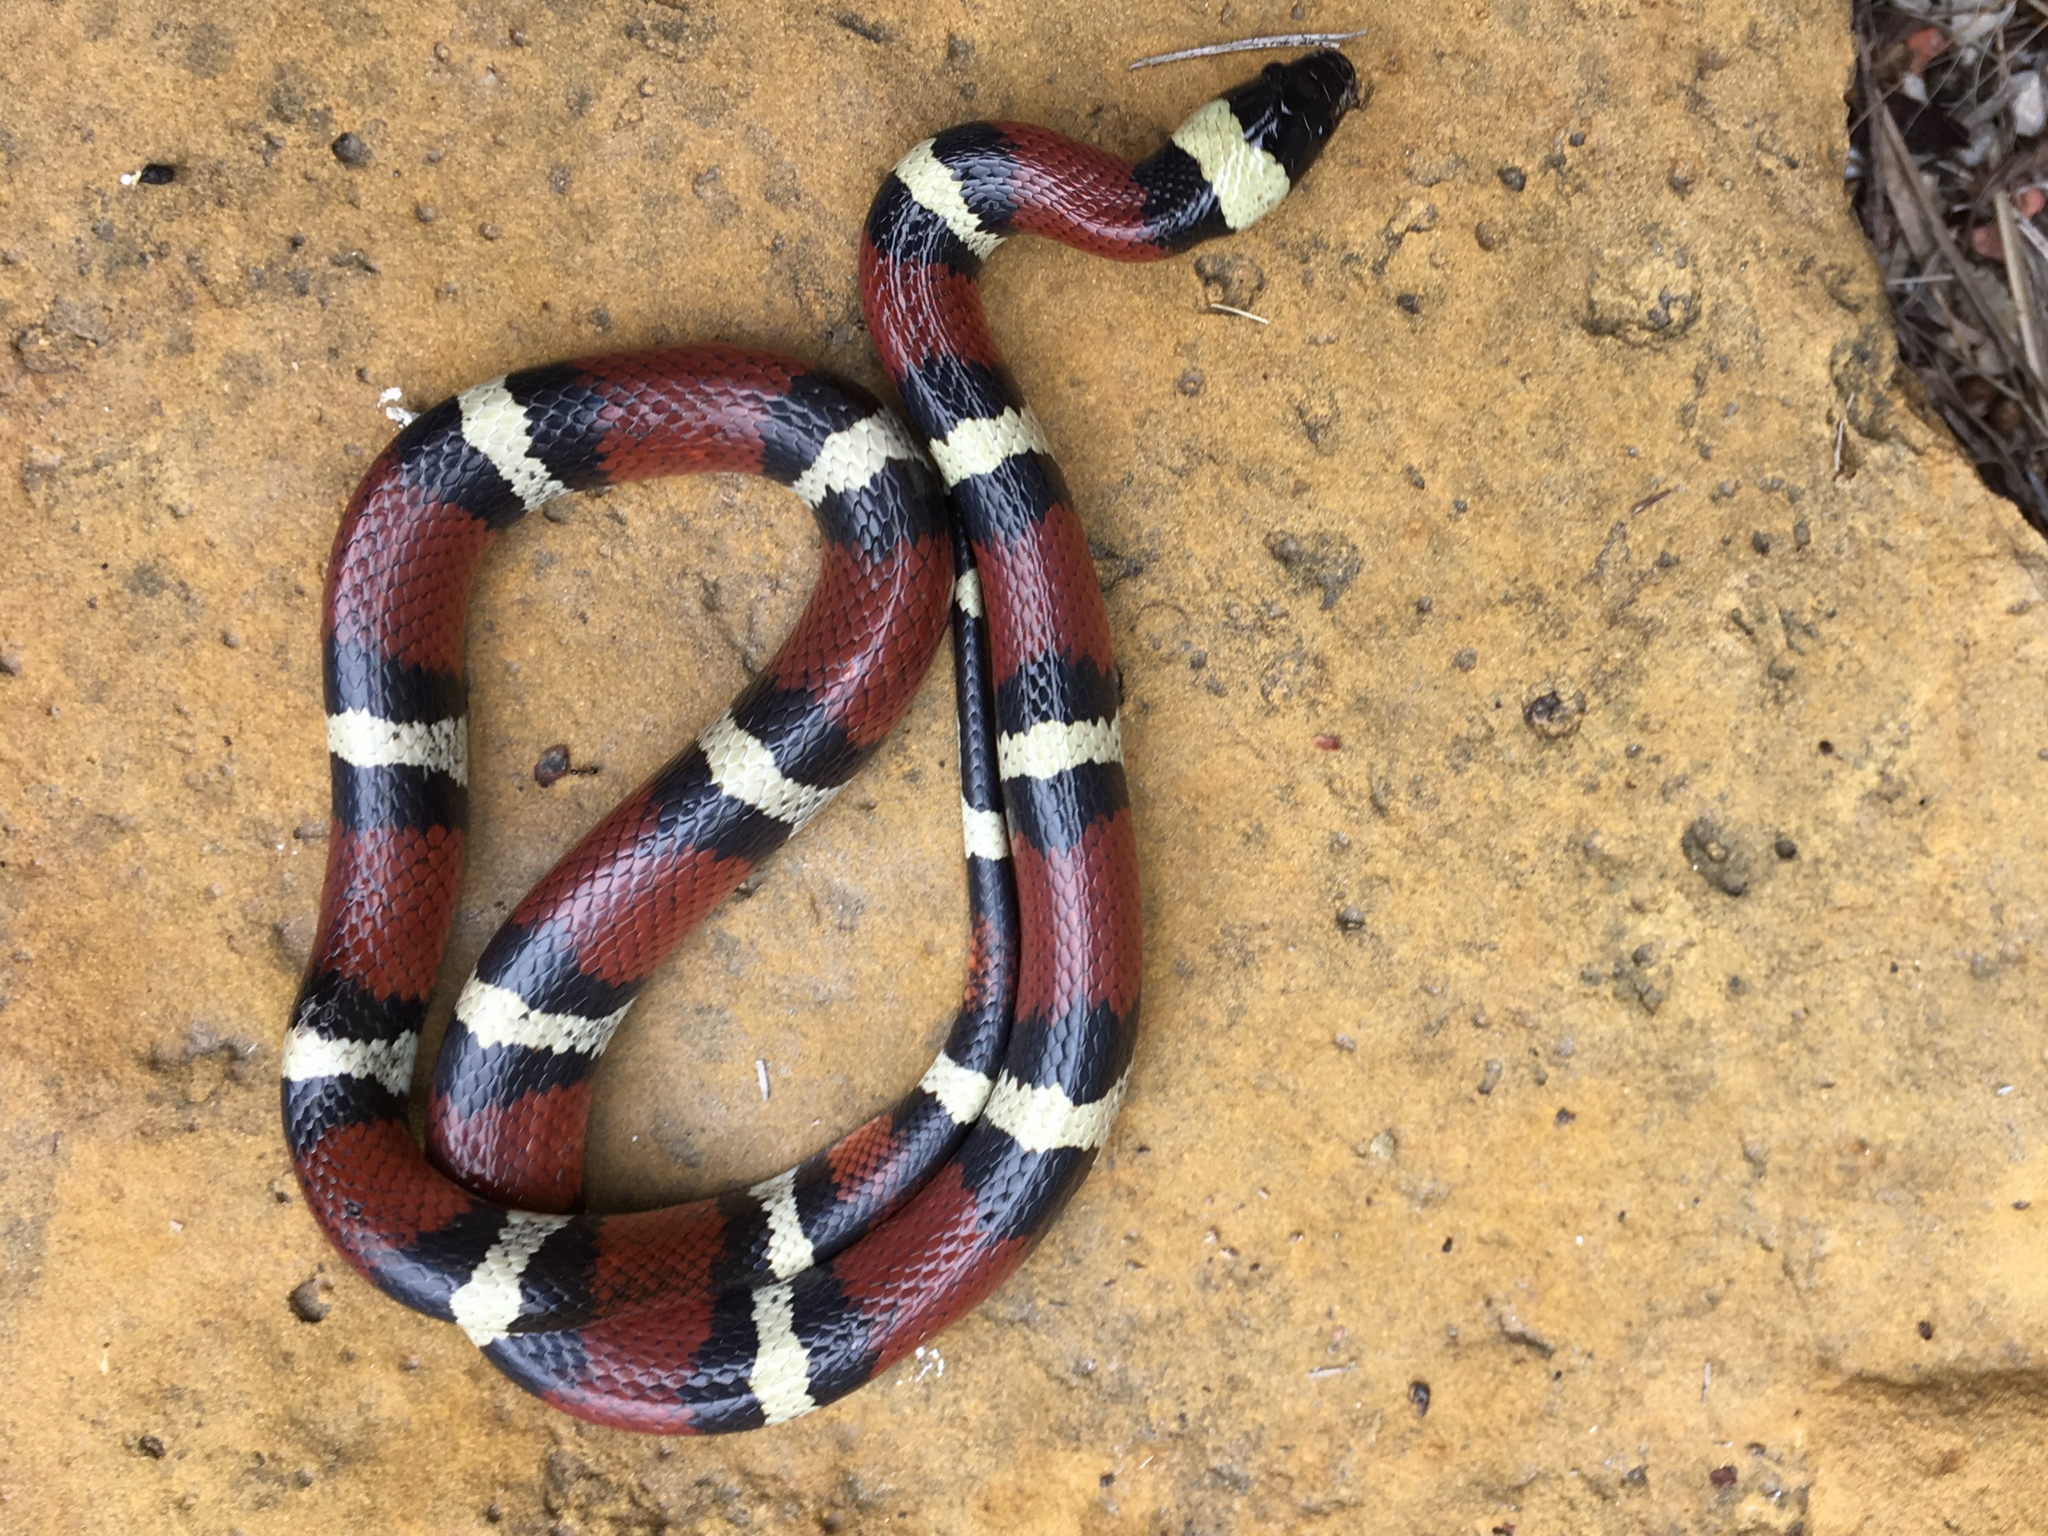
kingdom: Animalia
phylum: Chordata
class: Squamata
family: Colubridae
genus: Lampropeltis
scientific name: Lampropeltis annulata
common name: Mexican milksnake
